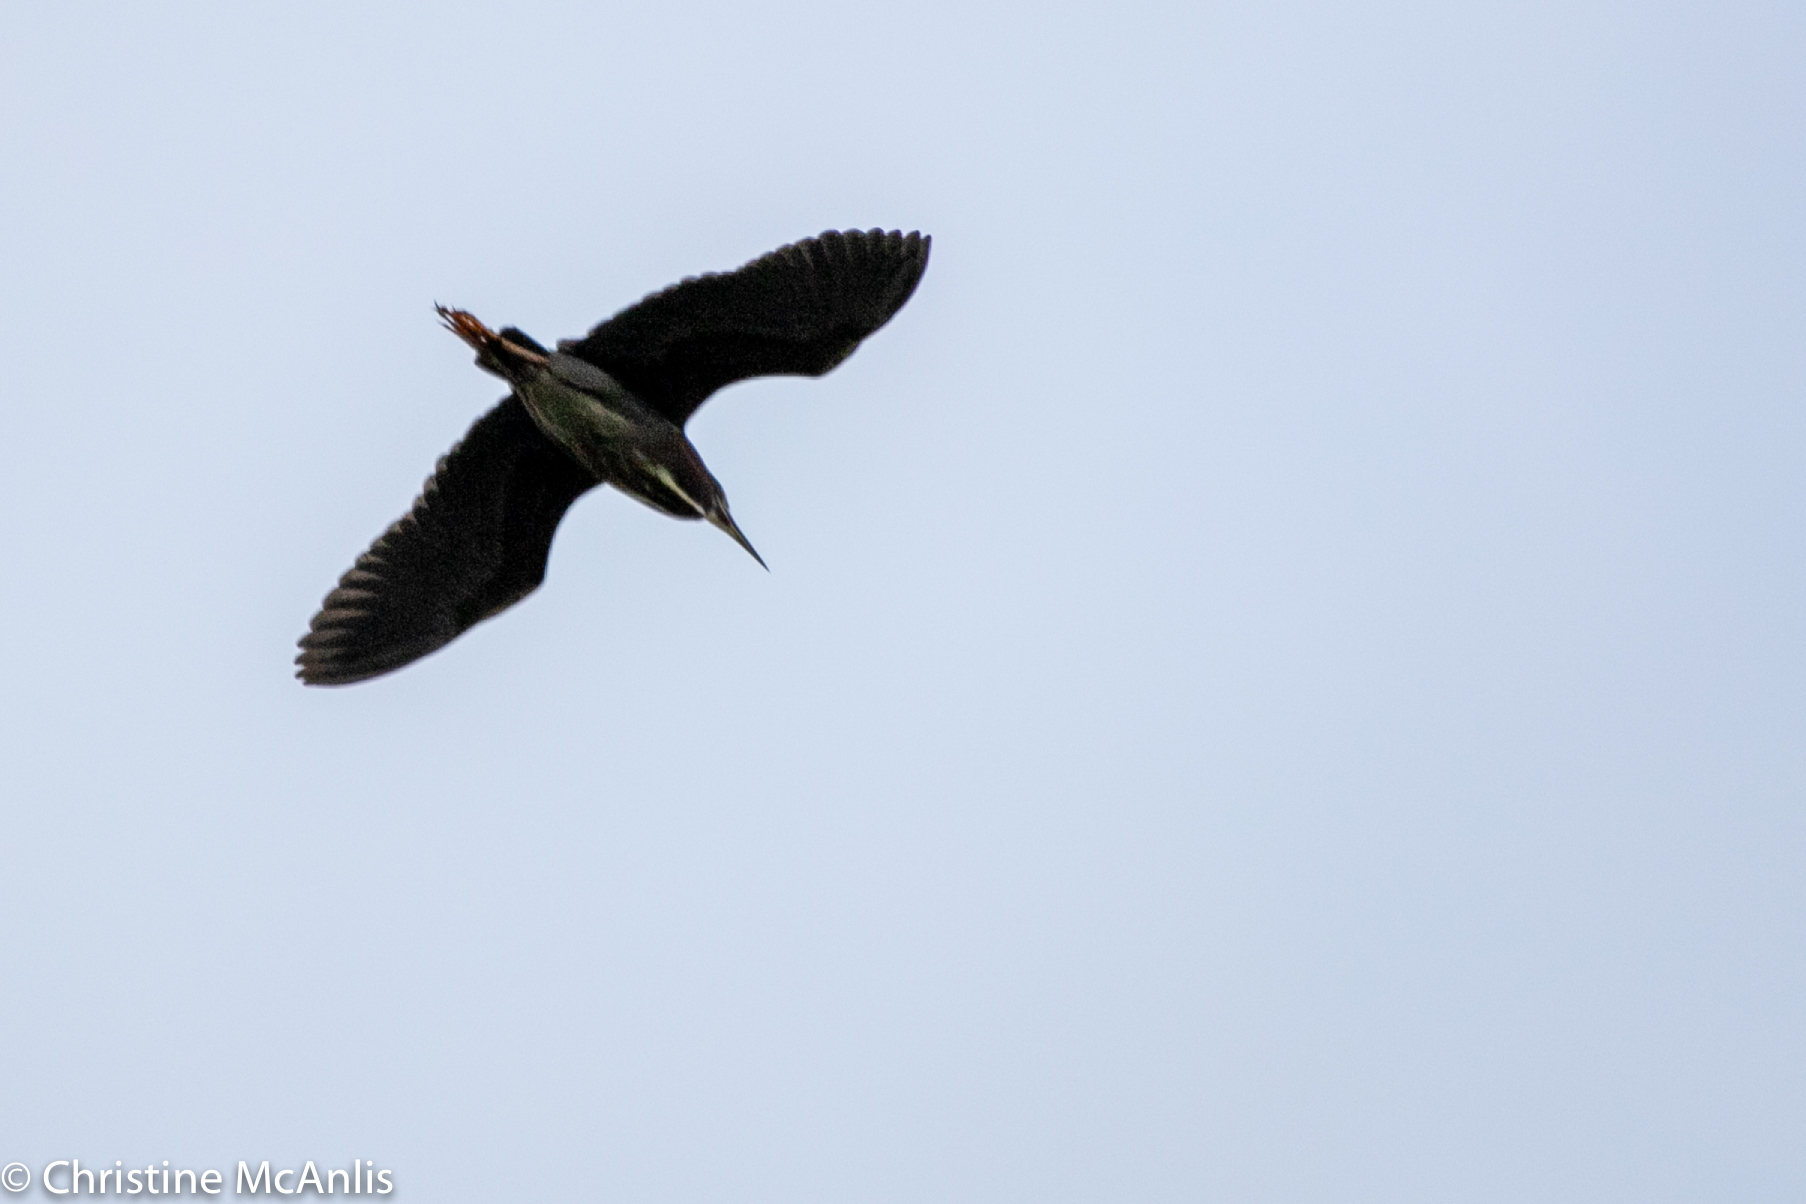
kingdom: Animalia
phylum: Chordata
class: Aves
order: Pelecaniformes
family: Ardeidae
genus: Butorides
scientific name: Butorides virescens
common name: Green heron
